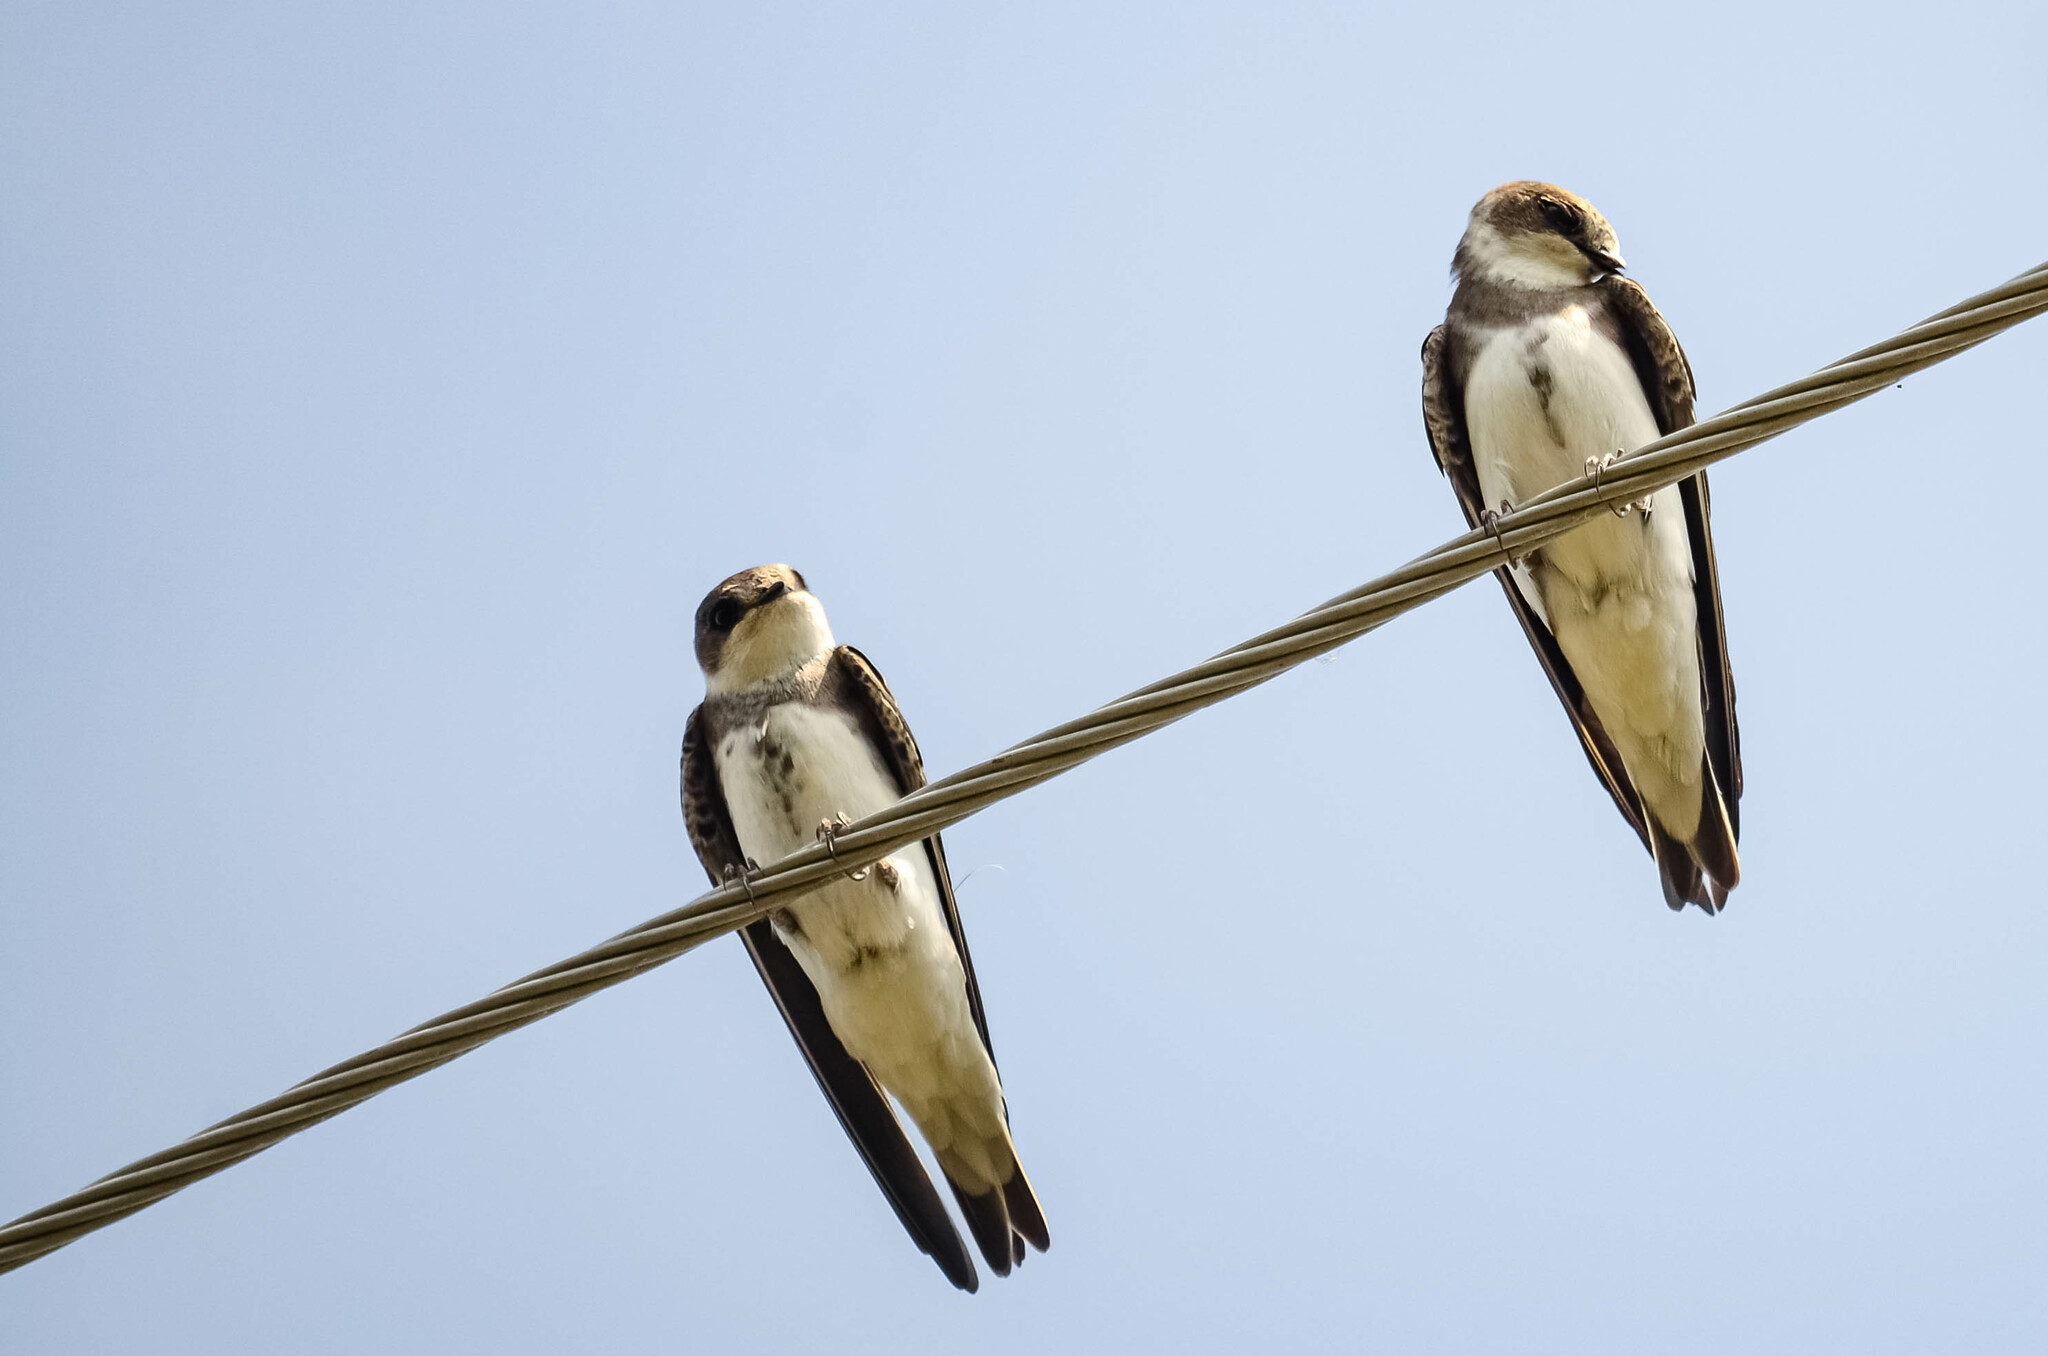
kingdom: Animalia
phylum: Chordata
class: Aves
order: Passeriformes
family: Hirundinidae
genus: Riparia
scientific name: Riparia riparia
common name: Sand martin
